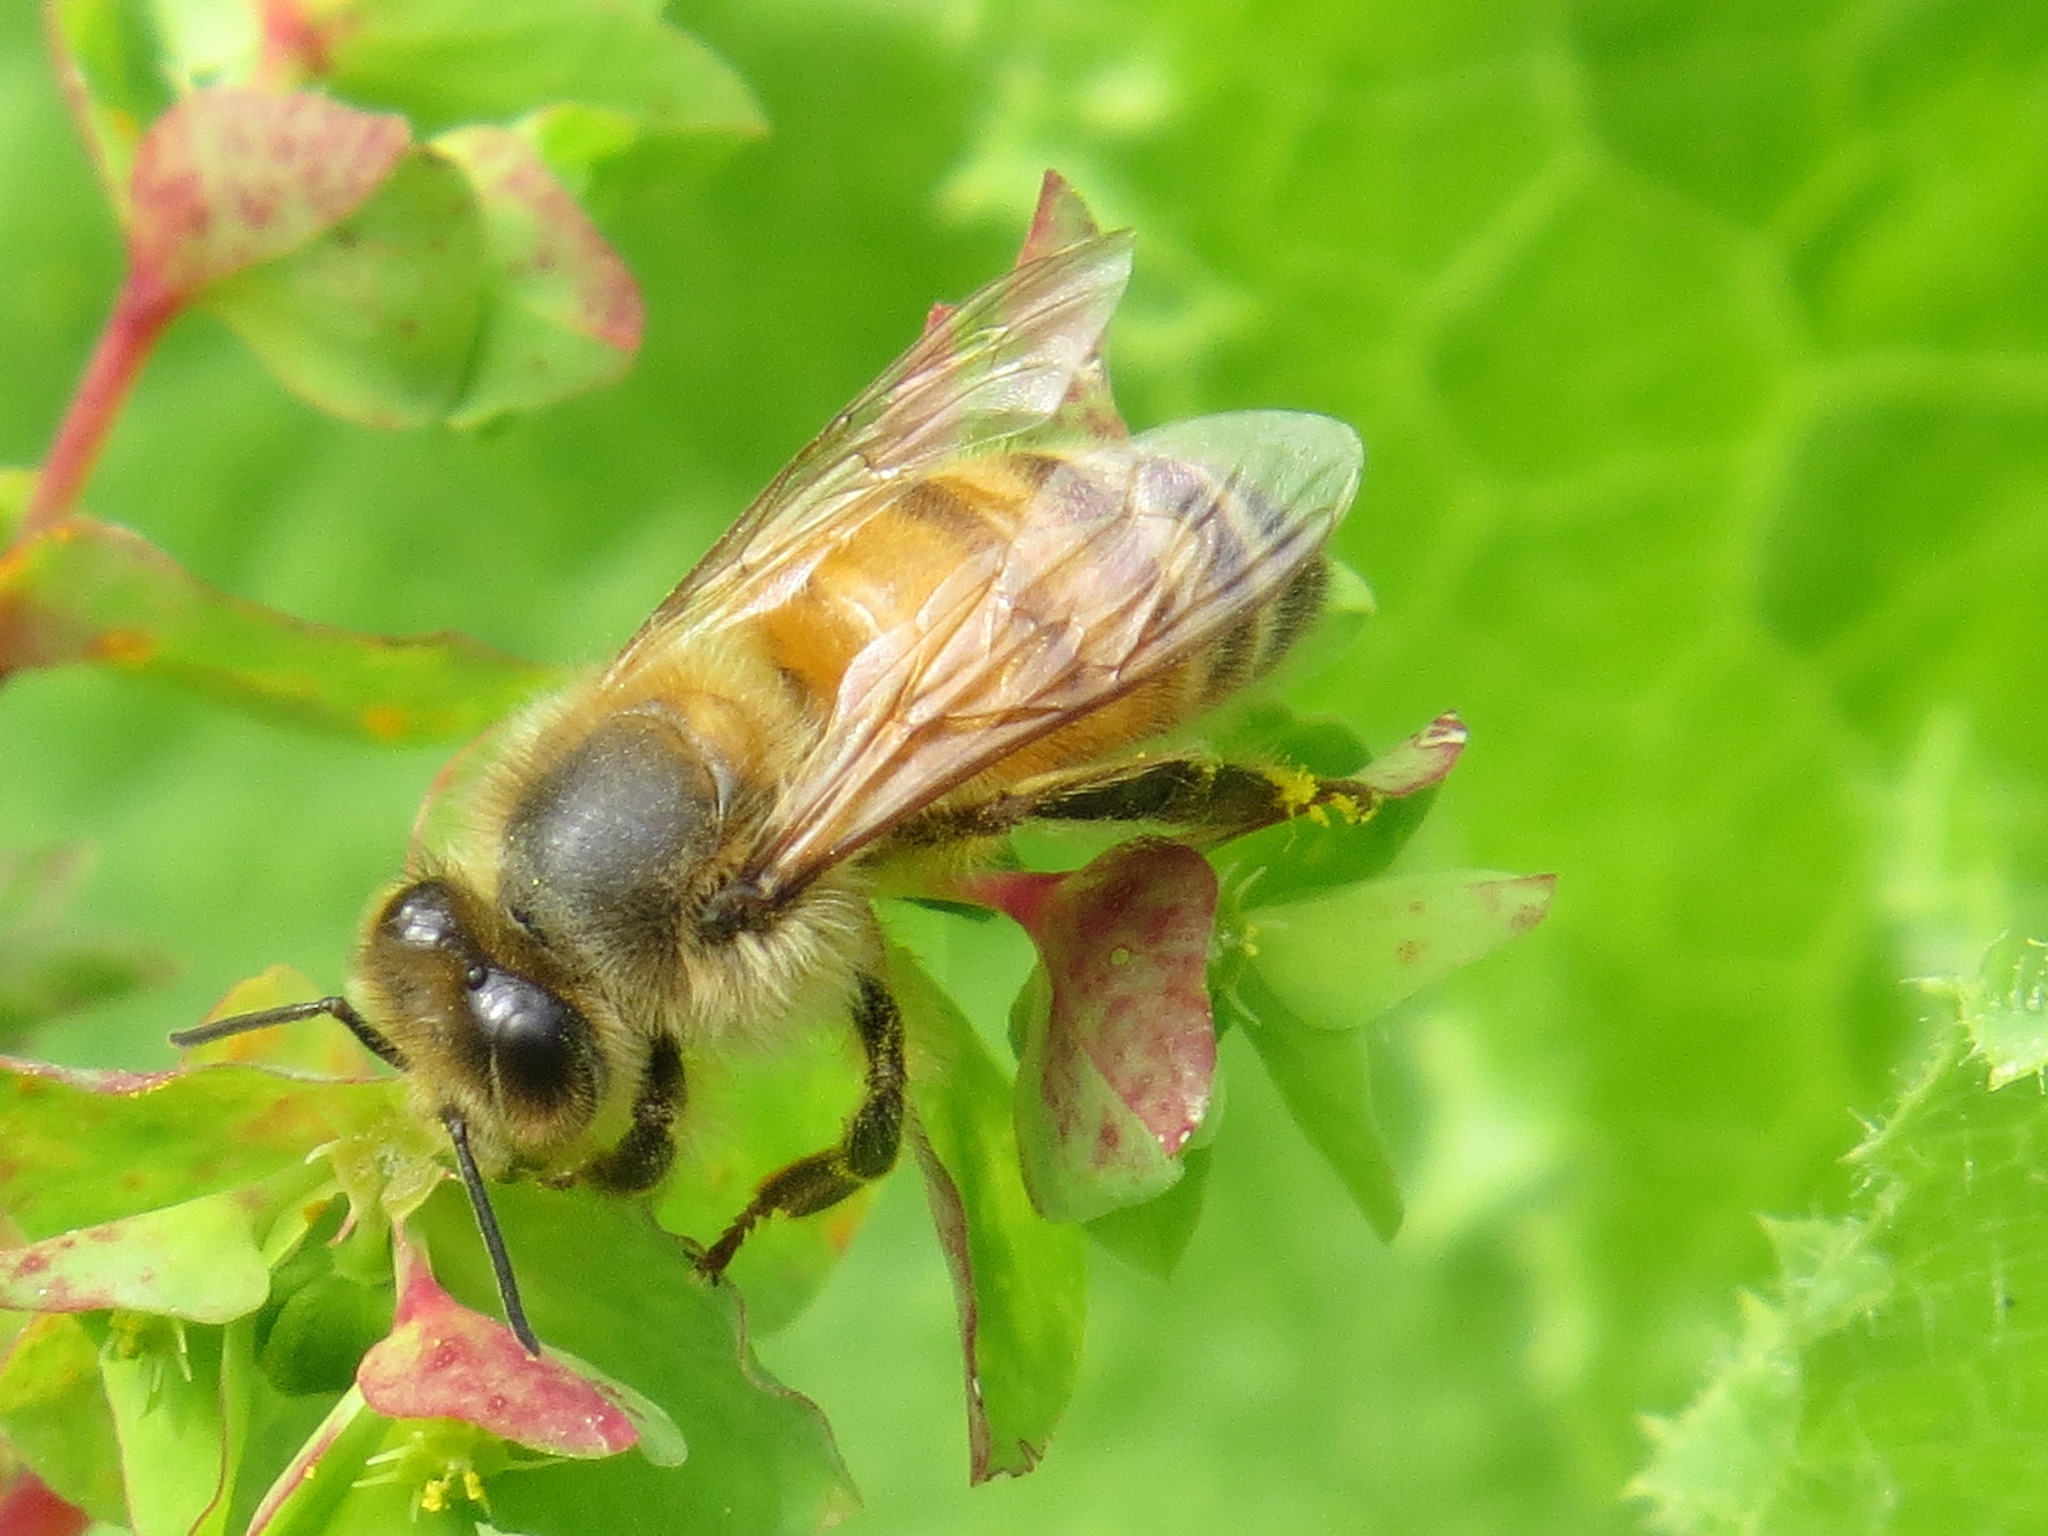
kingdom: Animalia
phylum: Arthropoda
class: Insecta
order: Hymenoptera
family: Apidae
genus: Apis
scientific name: Apis mellifera
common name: Honey bee
